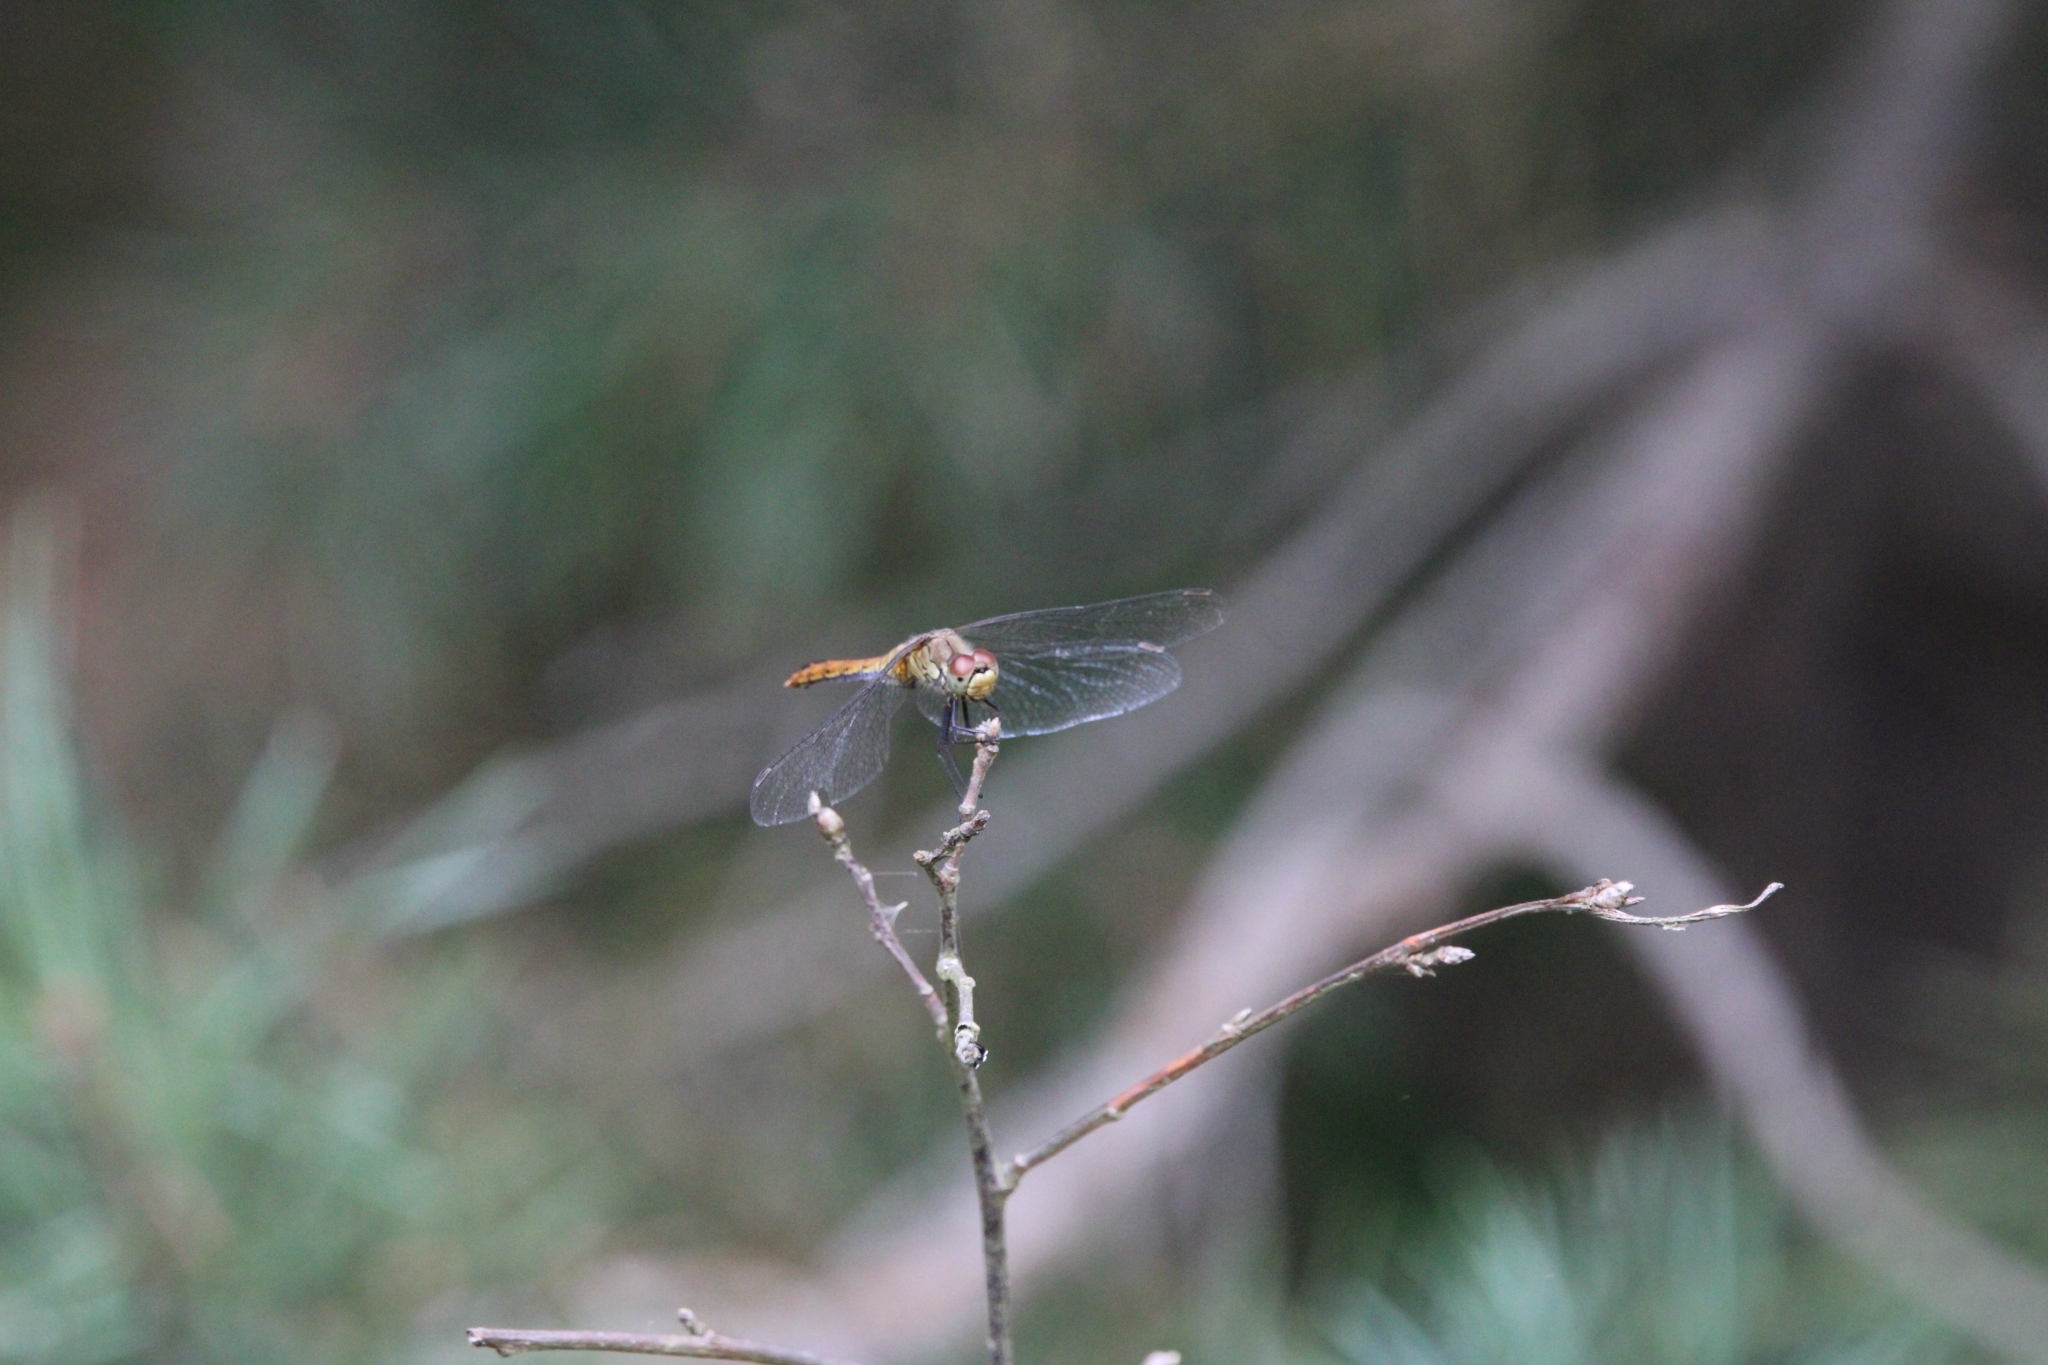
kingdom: Animalia
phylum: Arthropoda
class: Insecta
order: Odonata
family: Libellulidae
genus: Sympetrum
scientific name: Sympetrum sanguineum
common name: Ruddy darter
